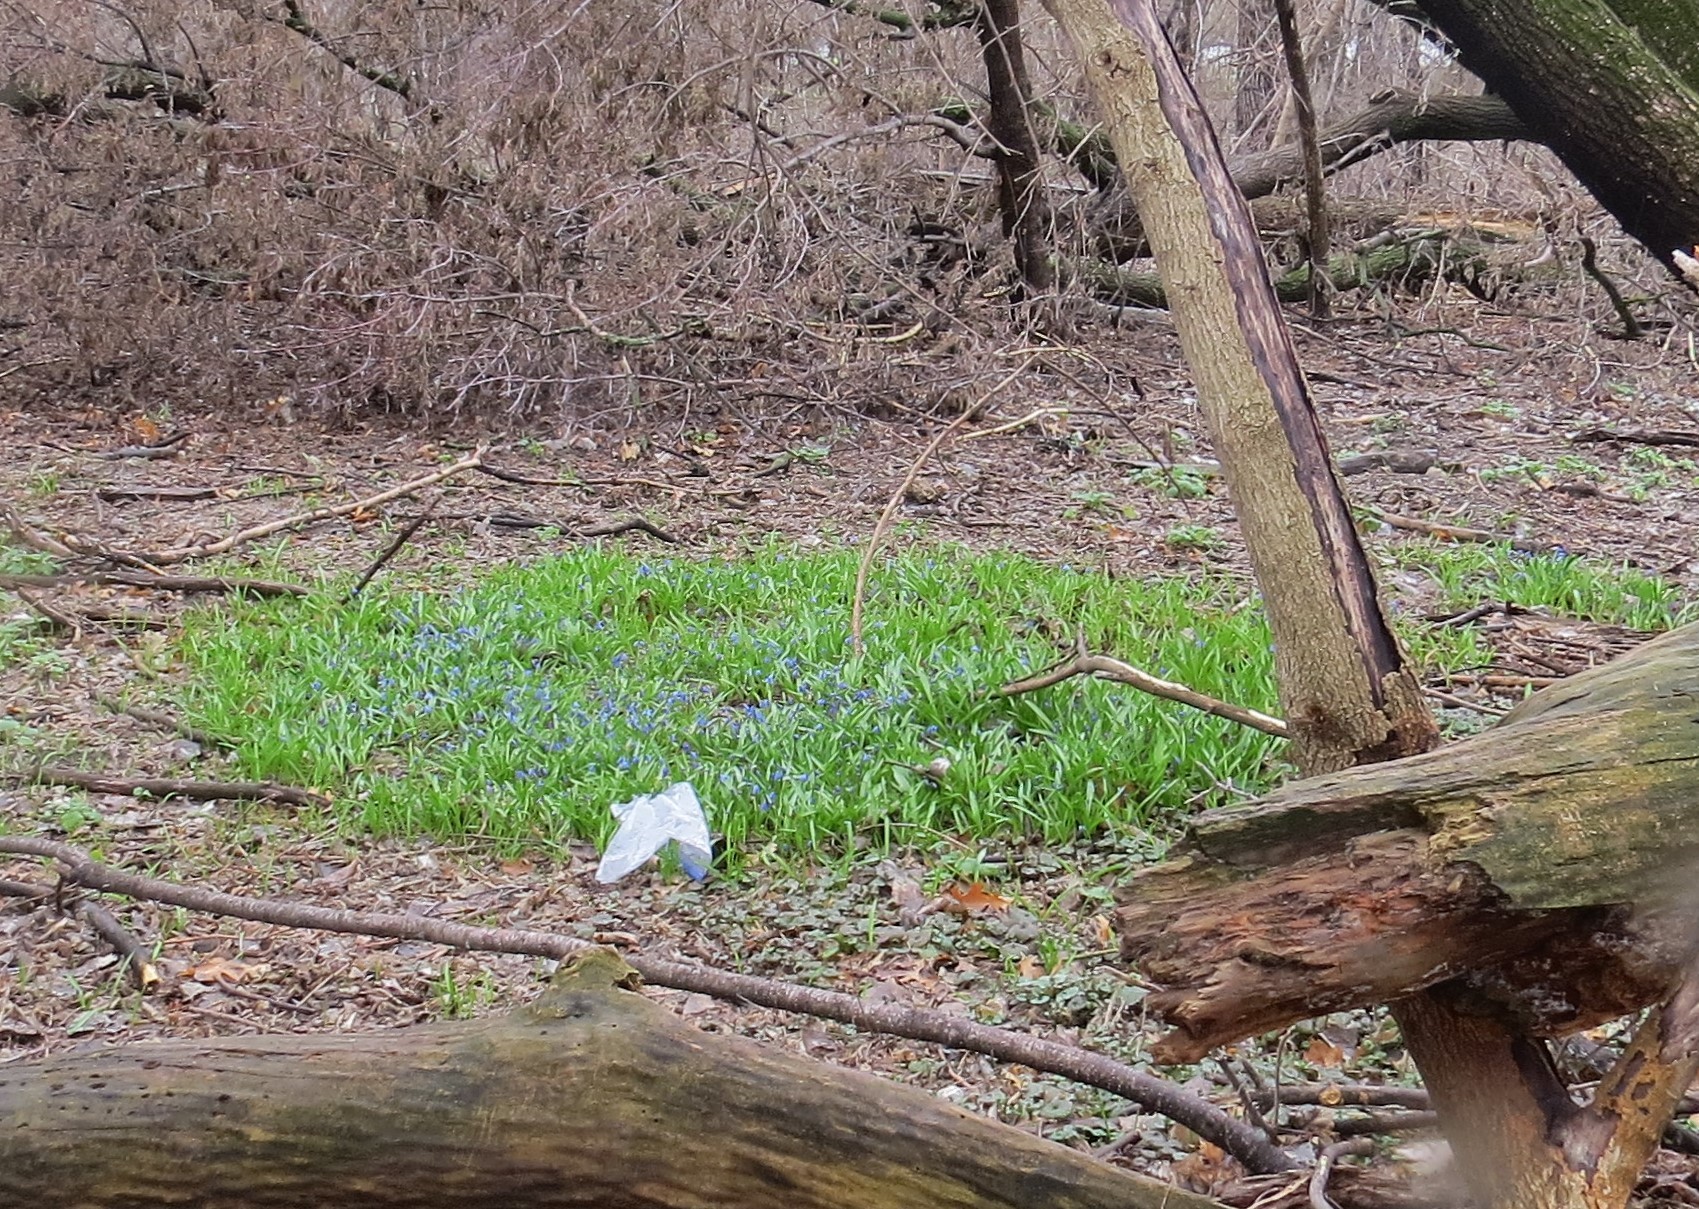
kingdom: Plantae
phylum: Tracheophyta
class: Liliopsida
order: Asparagales
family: Asparagaceae
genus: Scilla
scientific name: Scilla siberica
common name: Siberian squill
